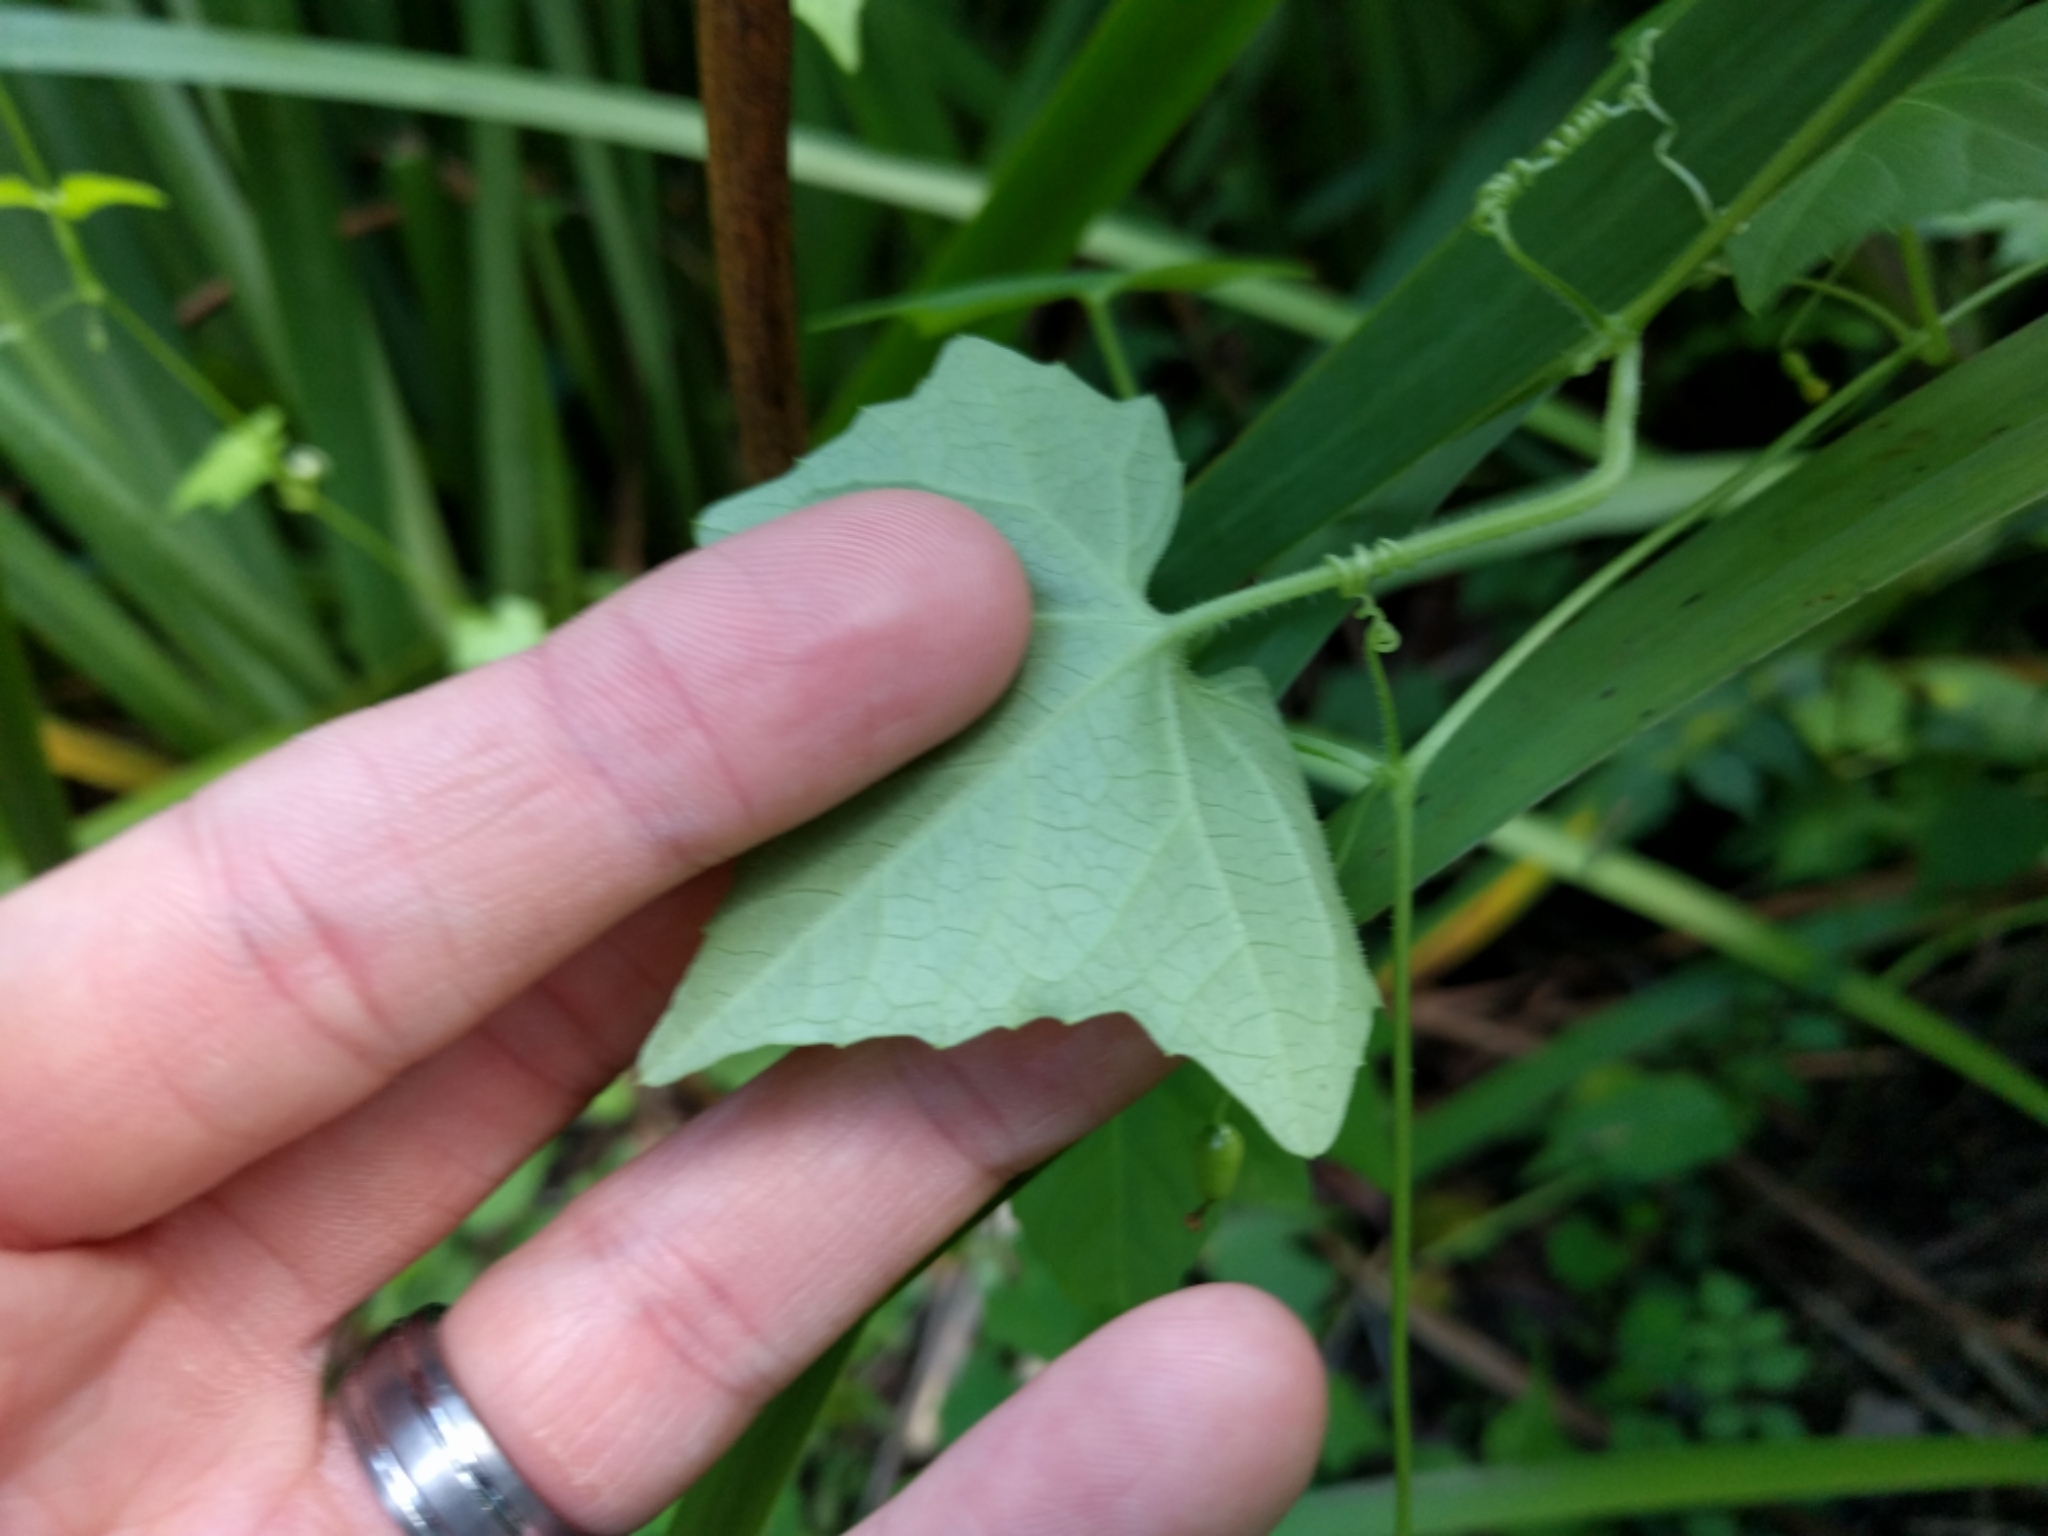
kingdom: Plantae
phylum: Tracheophyta
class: Magnoliopsida
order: Cucurbitales
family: Cucurbitaceae
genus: Melothria
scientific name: Melothria pendula
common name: Creeping-cucumber
